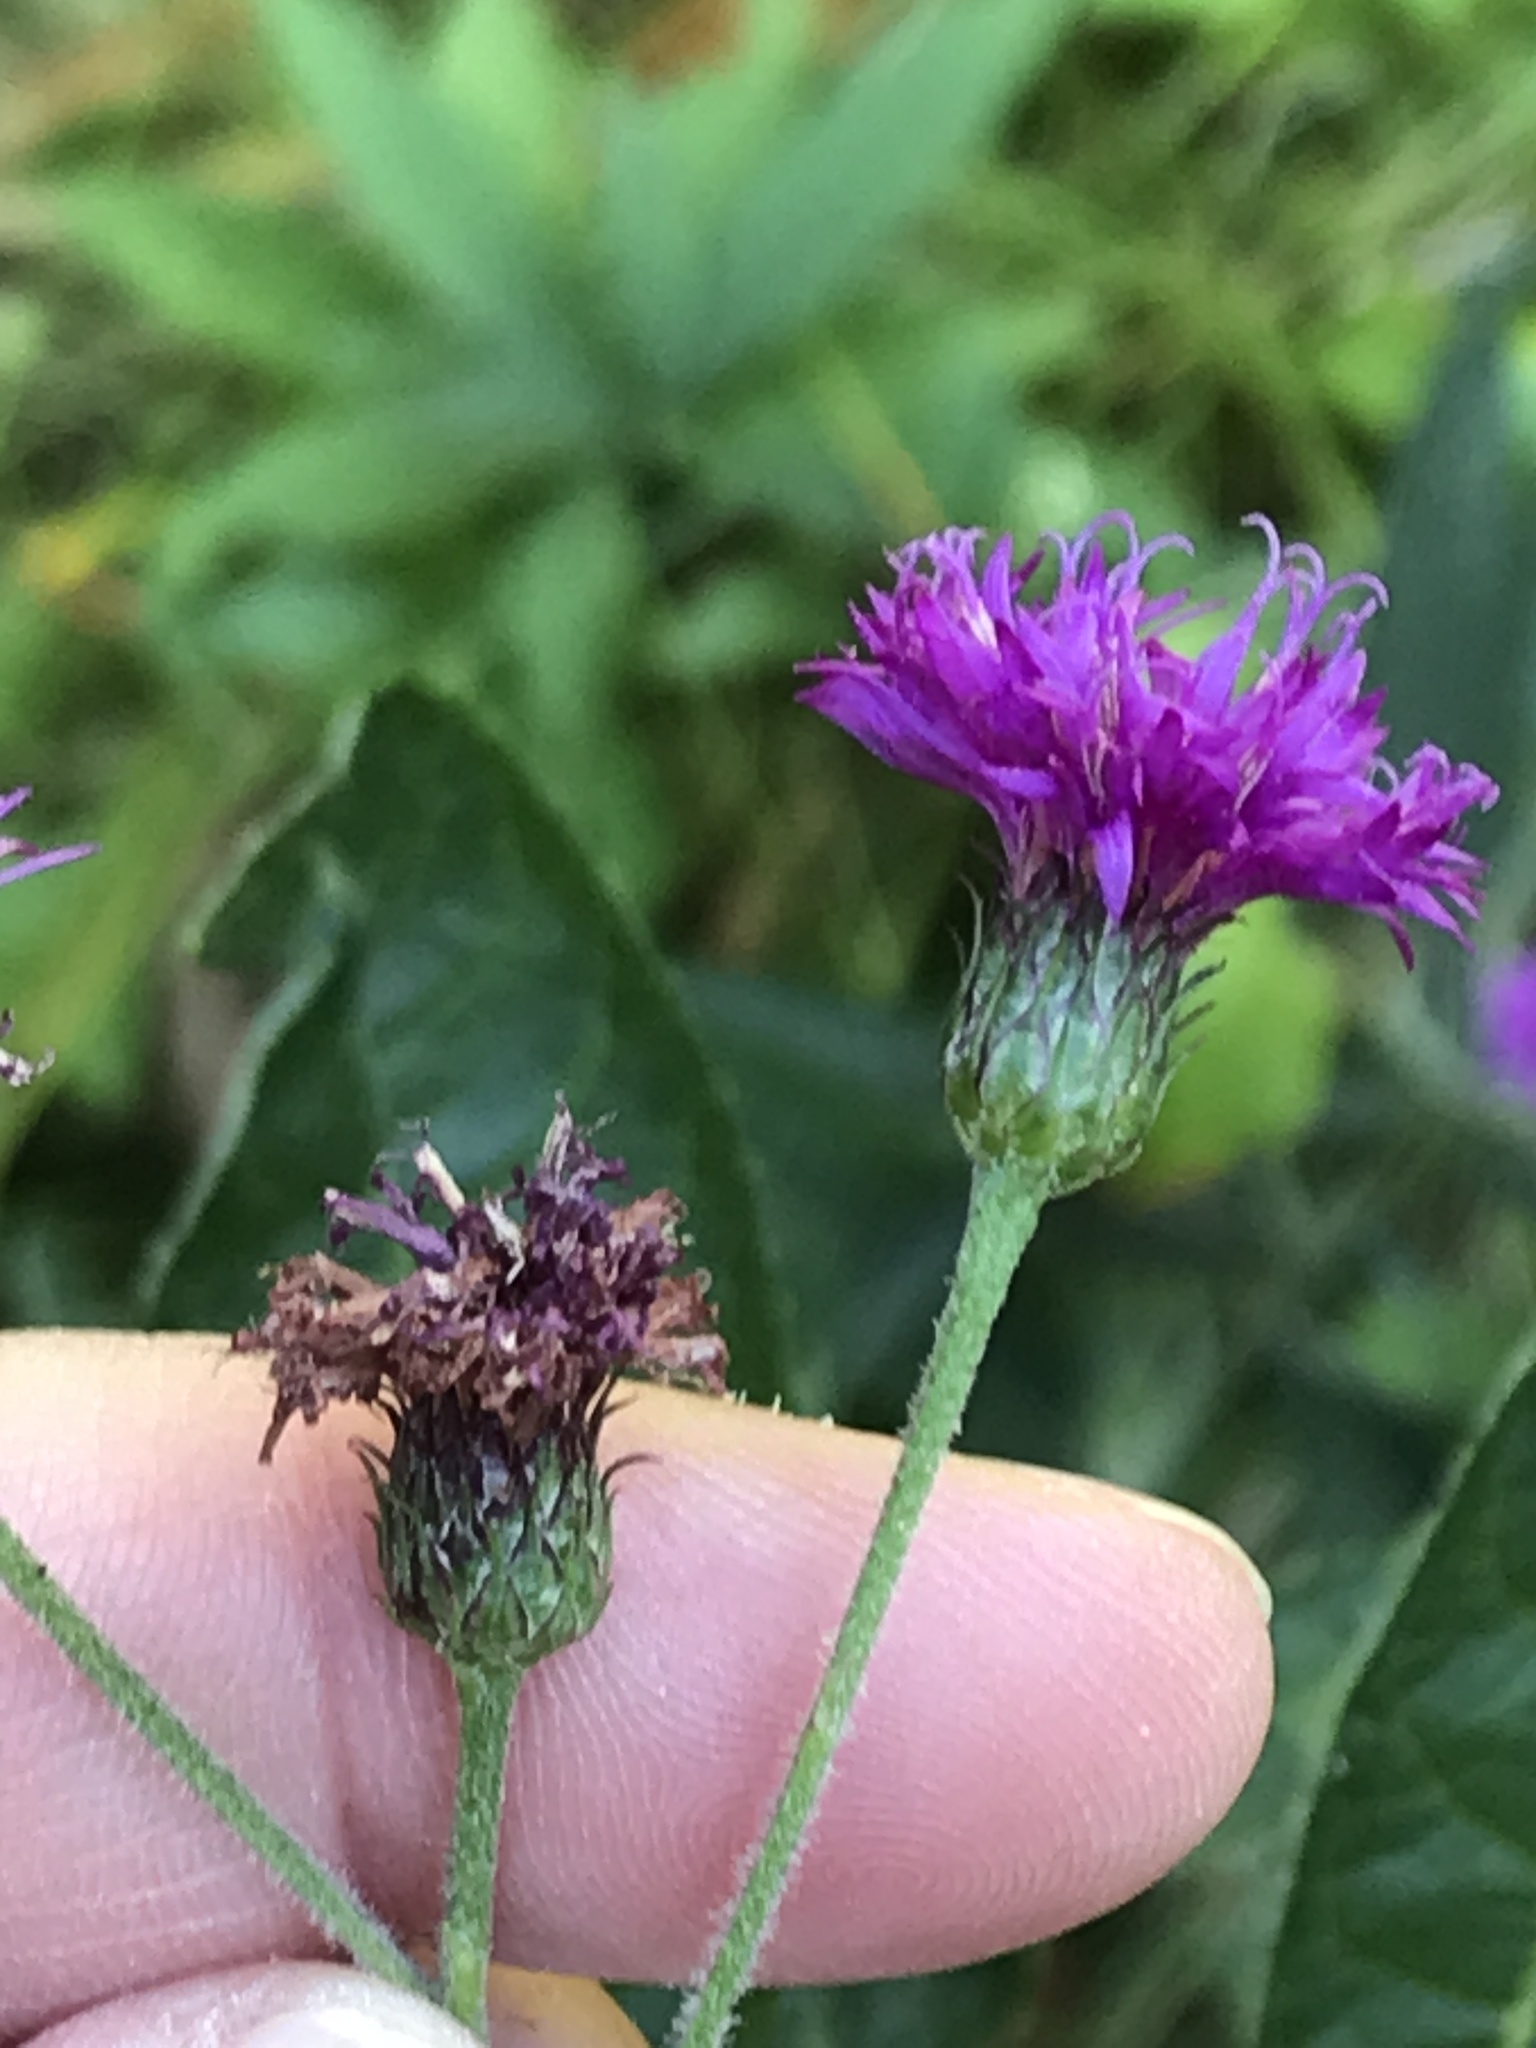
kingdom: Plantae
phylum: Tracheophyta
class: Magnoliopsida
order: Asterales
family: Asteraceae
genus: Vernonia
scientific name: Vernonia noveboracensis
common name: New york ironweed
